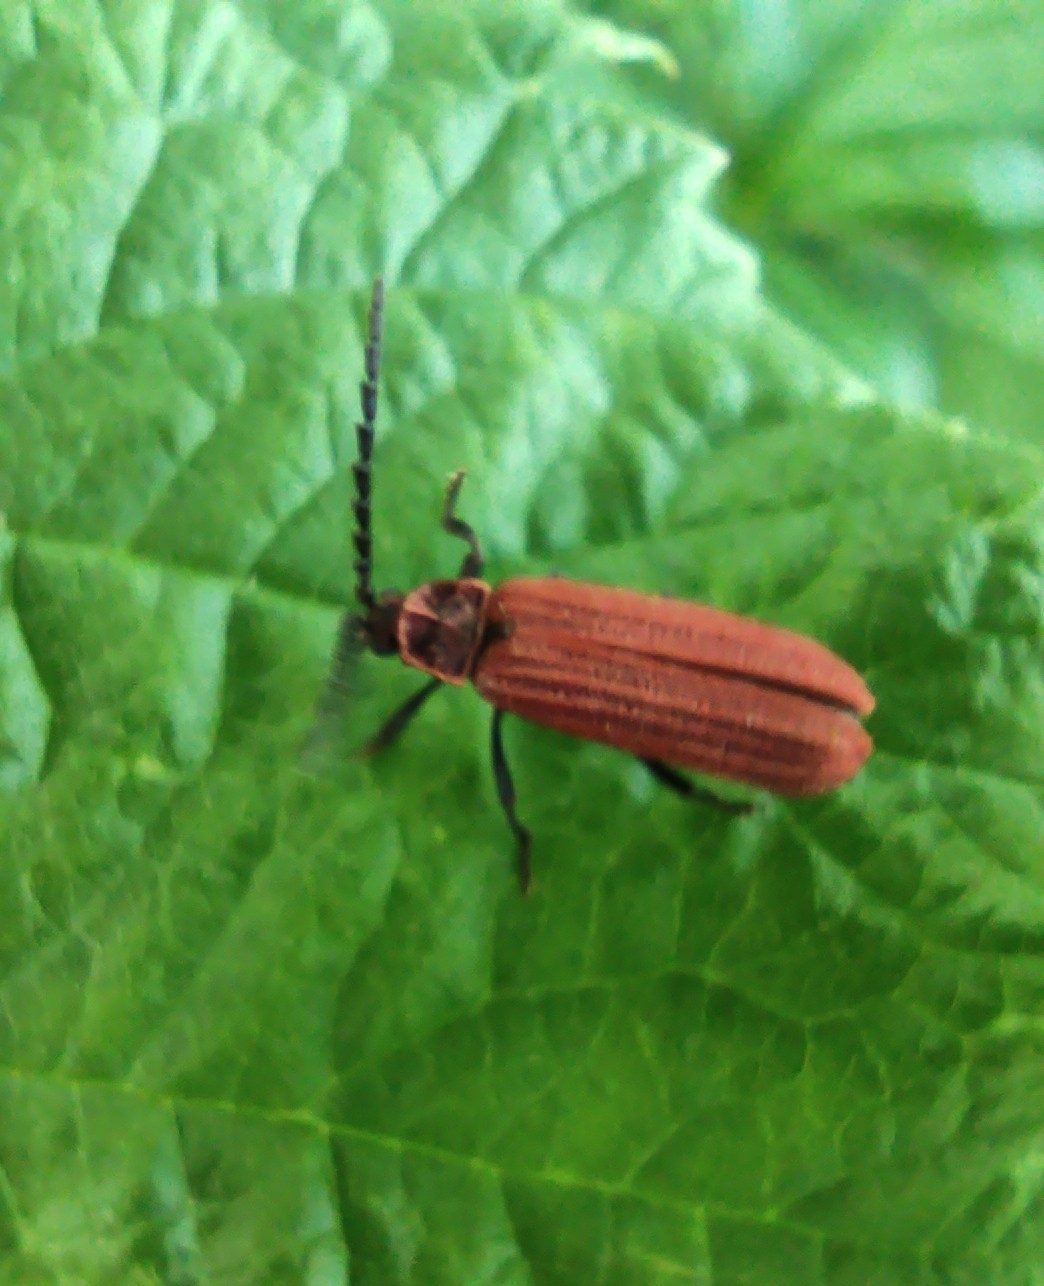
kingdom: Animalia
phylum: Arthropoda
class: Insecta
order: Coleoptera
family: Lycidae
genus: Lopheros
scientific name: Lopheros rubens
